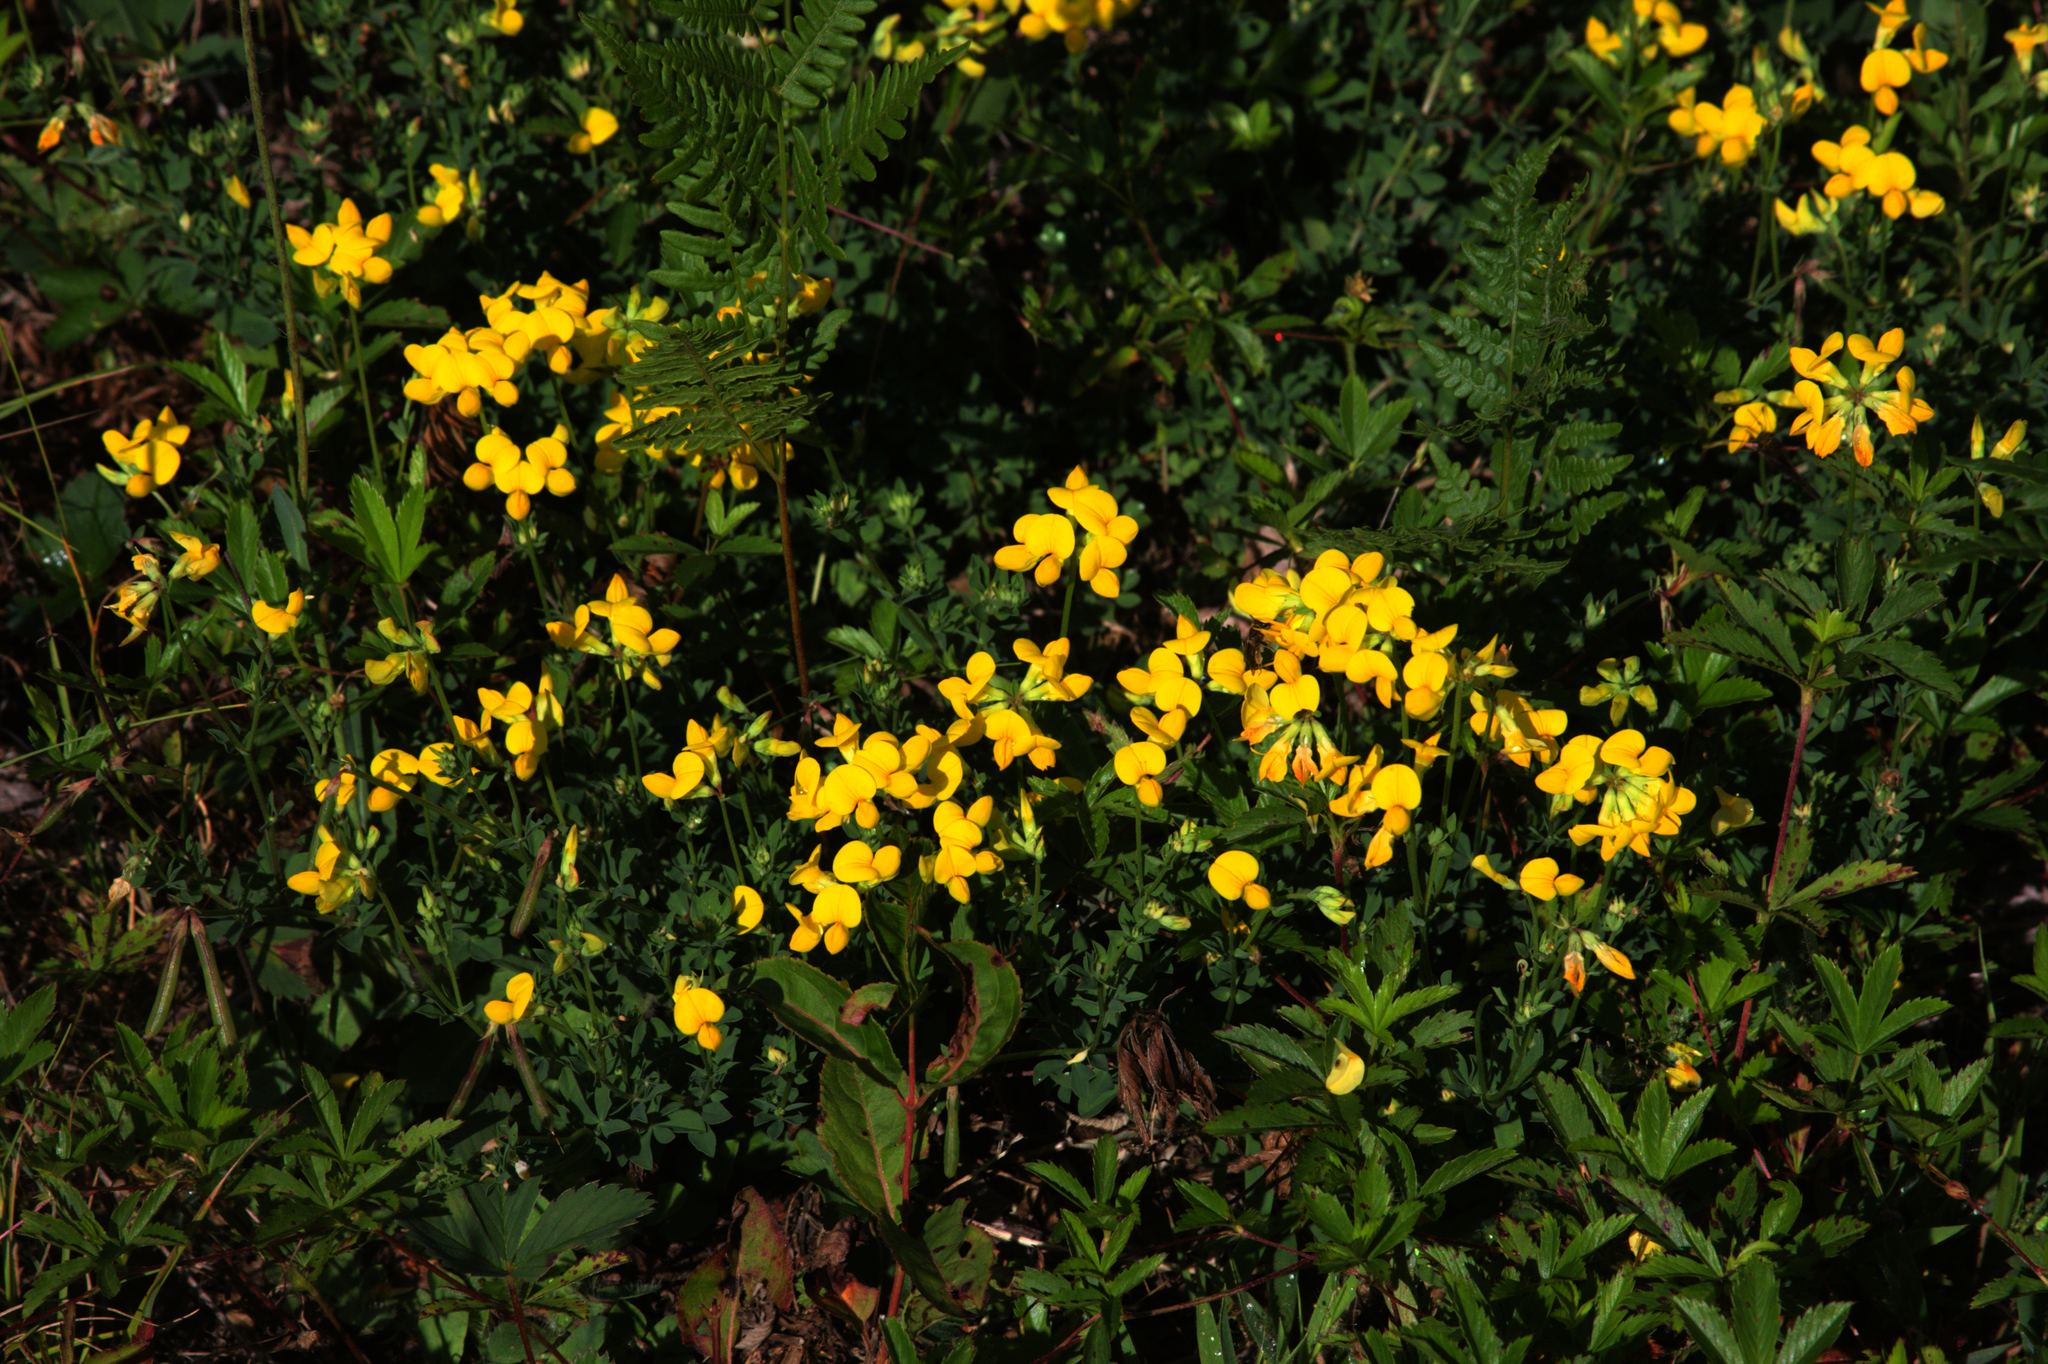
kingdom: Plantae
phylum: Tracheophyta
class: Magnoliopsida
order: Fabales
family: Fabaceae
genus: Lotus
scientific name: Lotus corniculatus
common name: Common bird's-foot-trefoil
